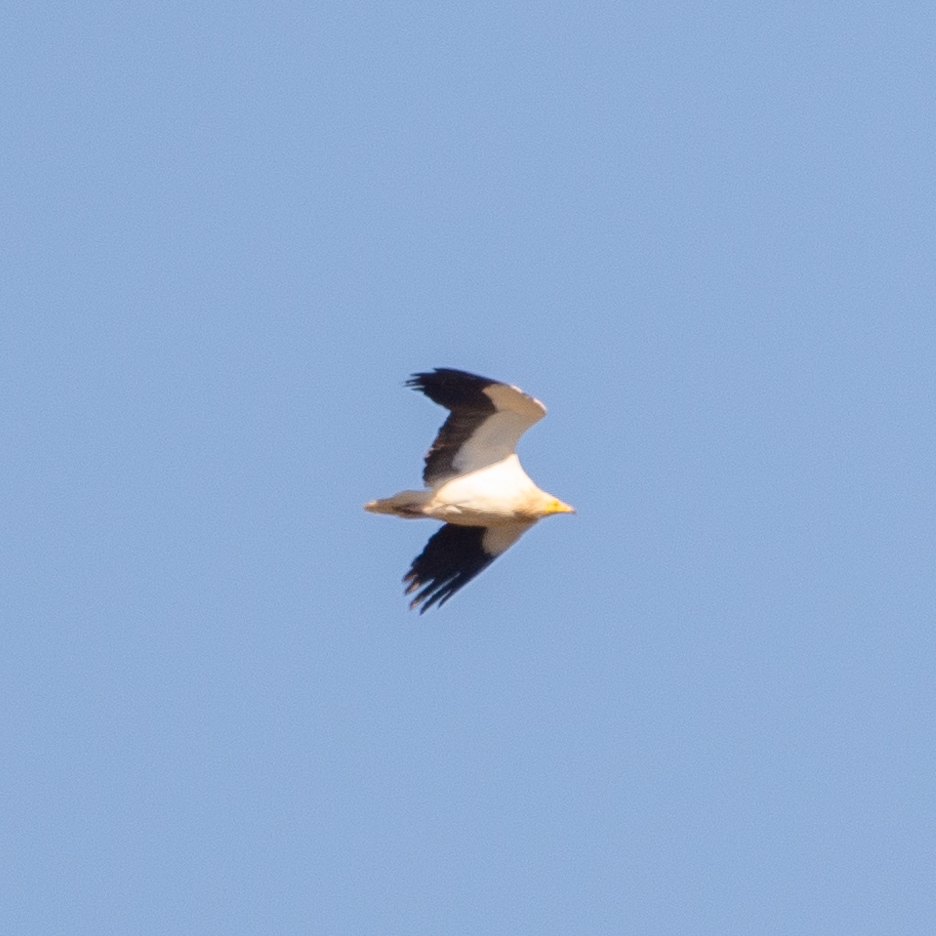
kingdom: Animalia
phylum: Chordata
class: Aves
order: Accipitriformes
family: Accipitridae
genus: Neophron
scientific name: Neophron percnopterus
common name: Egyptian vulture
